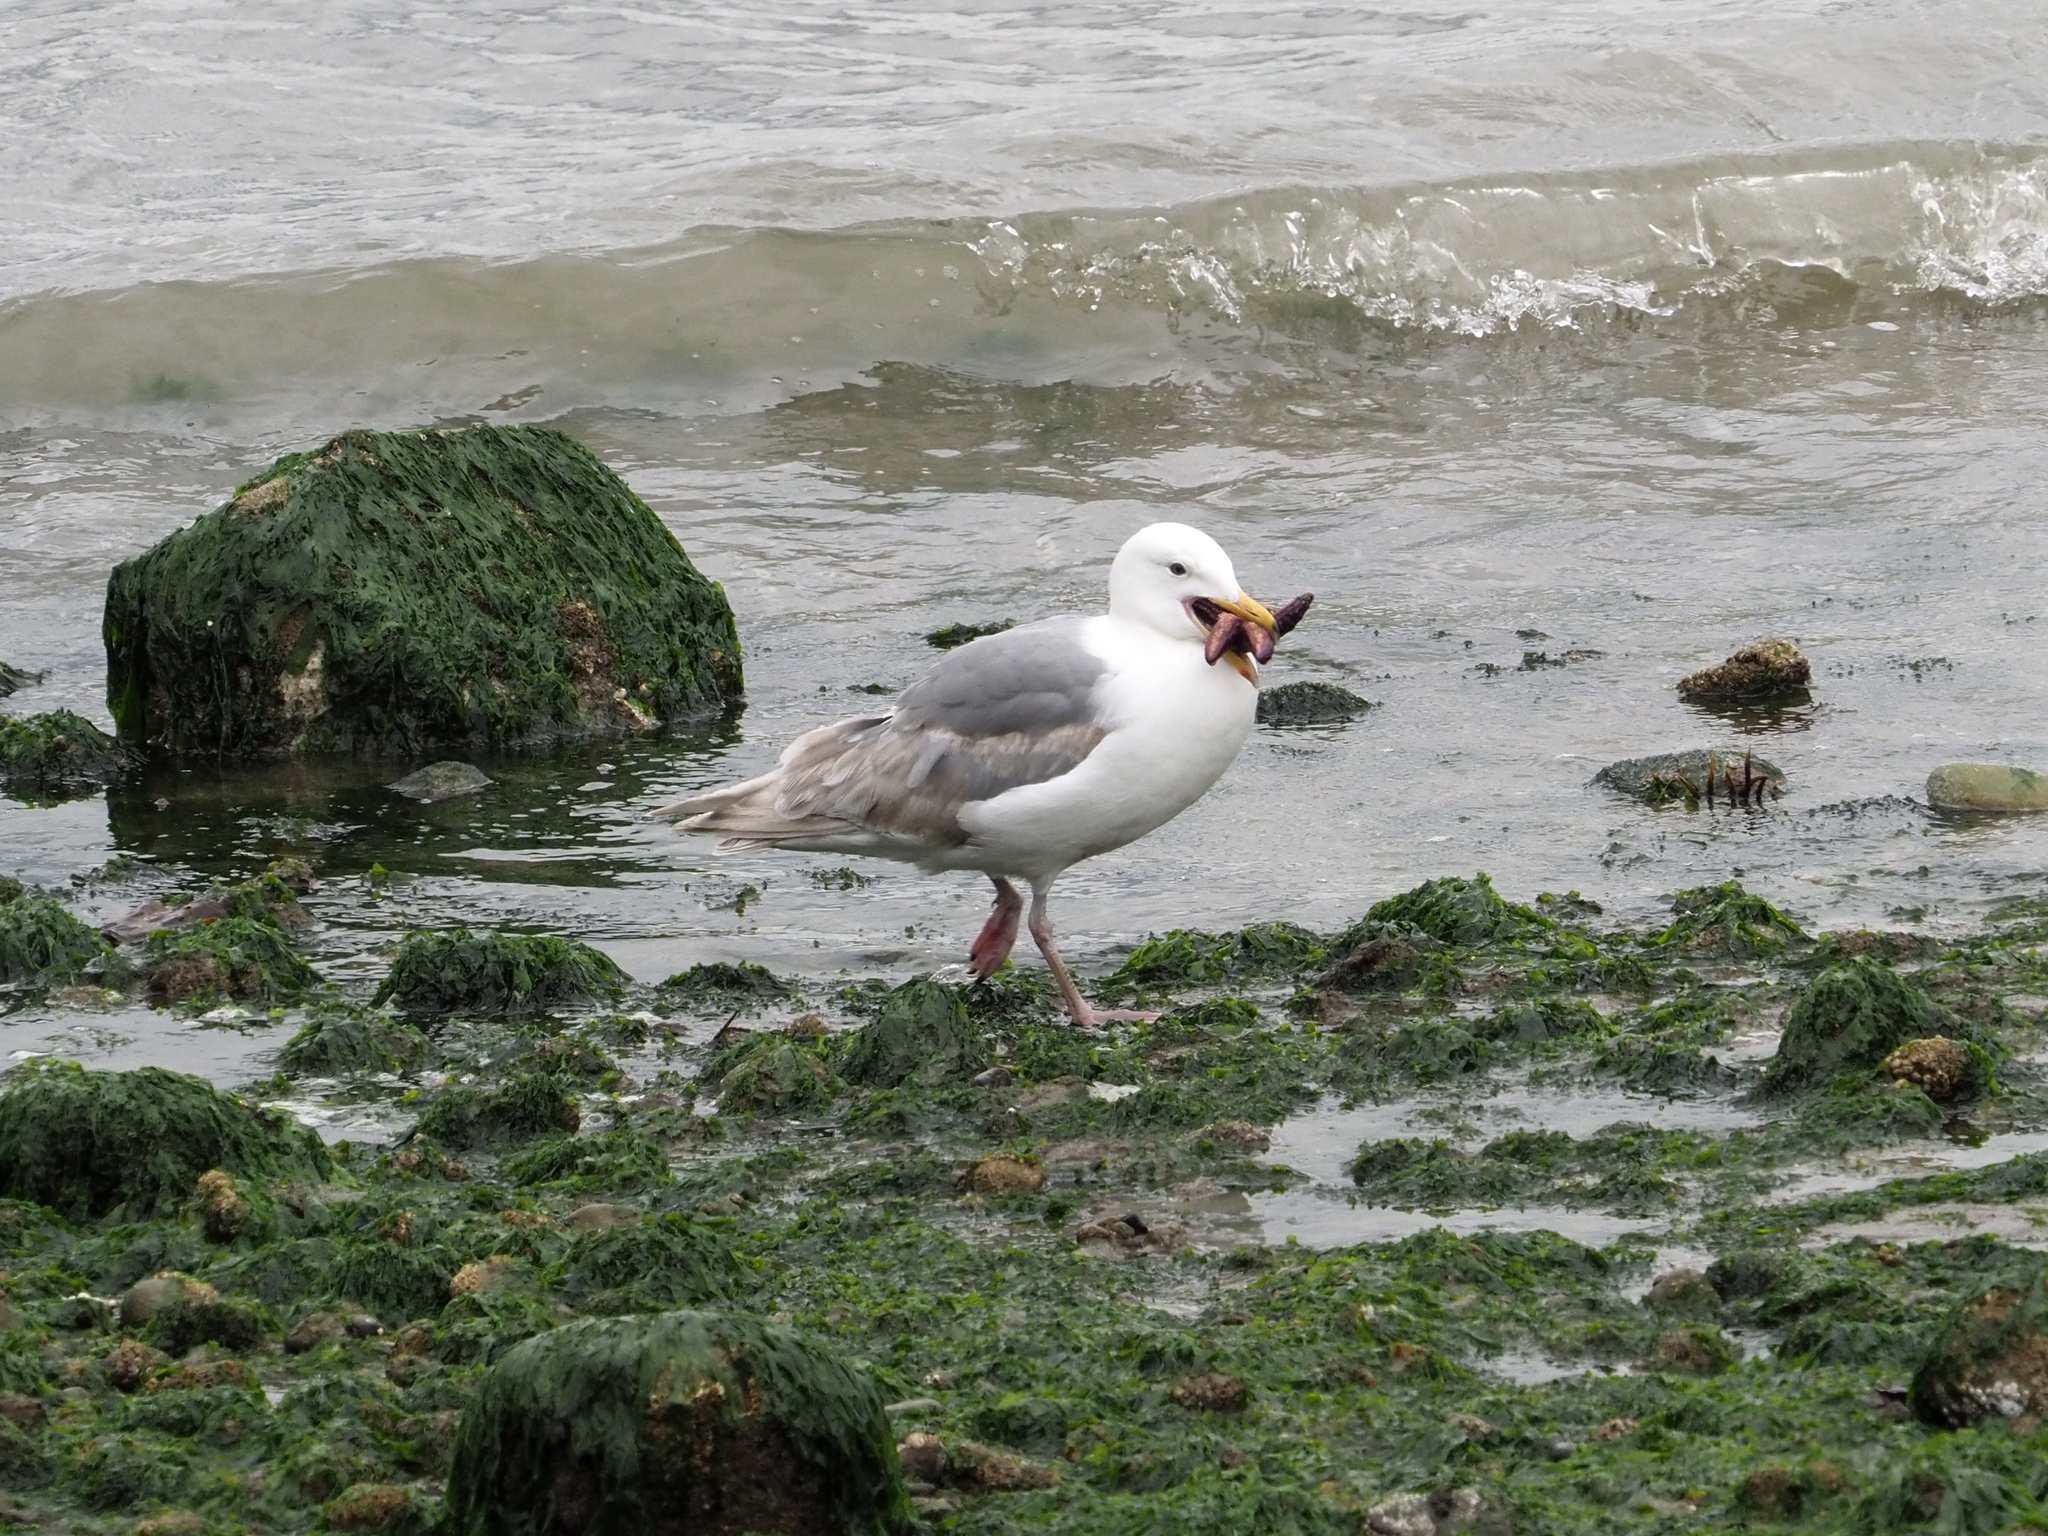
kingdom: Animalia
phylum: Echinodermata
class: Asteroidea
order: Forcipulatida
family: Asteriidae
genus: Pisaster
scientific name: Pisaster ochraceus
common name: Ochre stars
